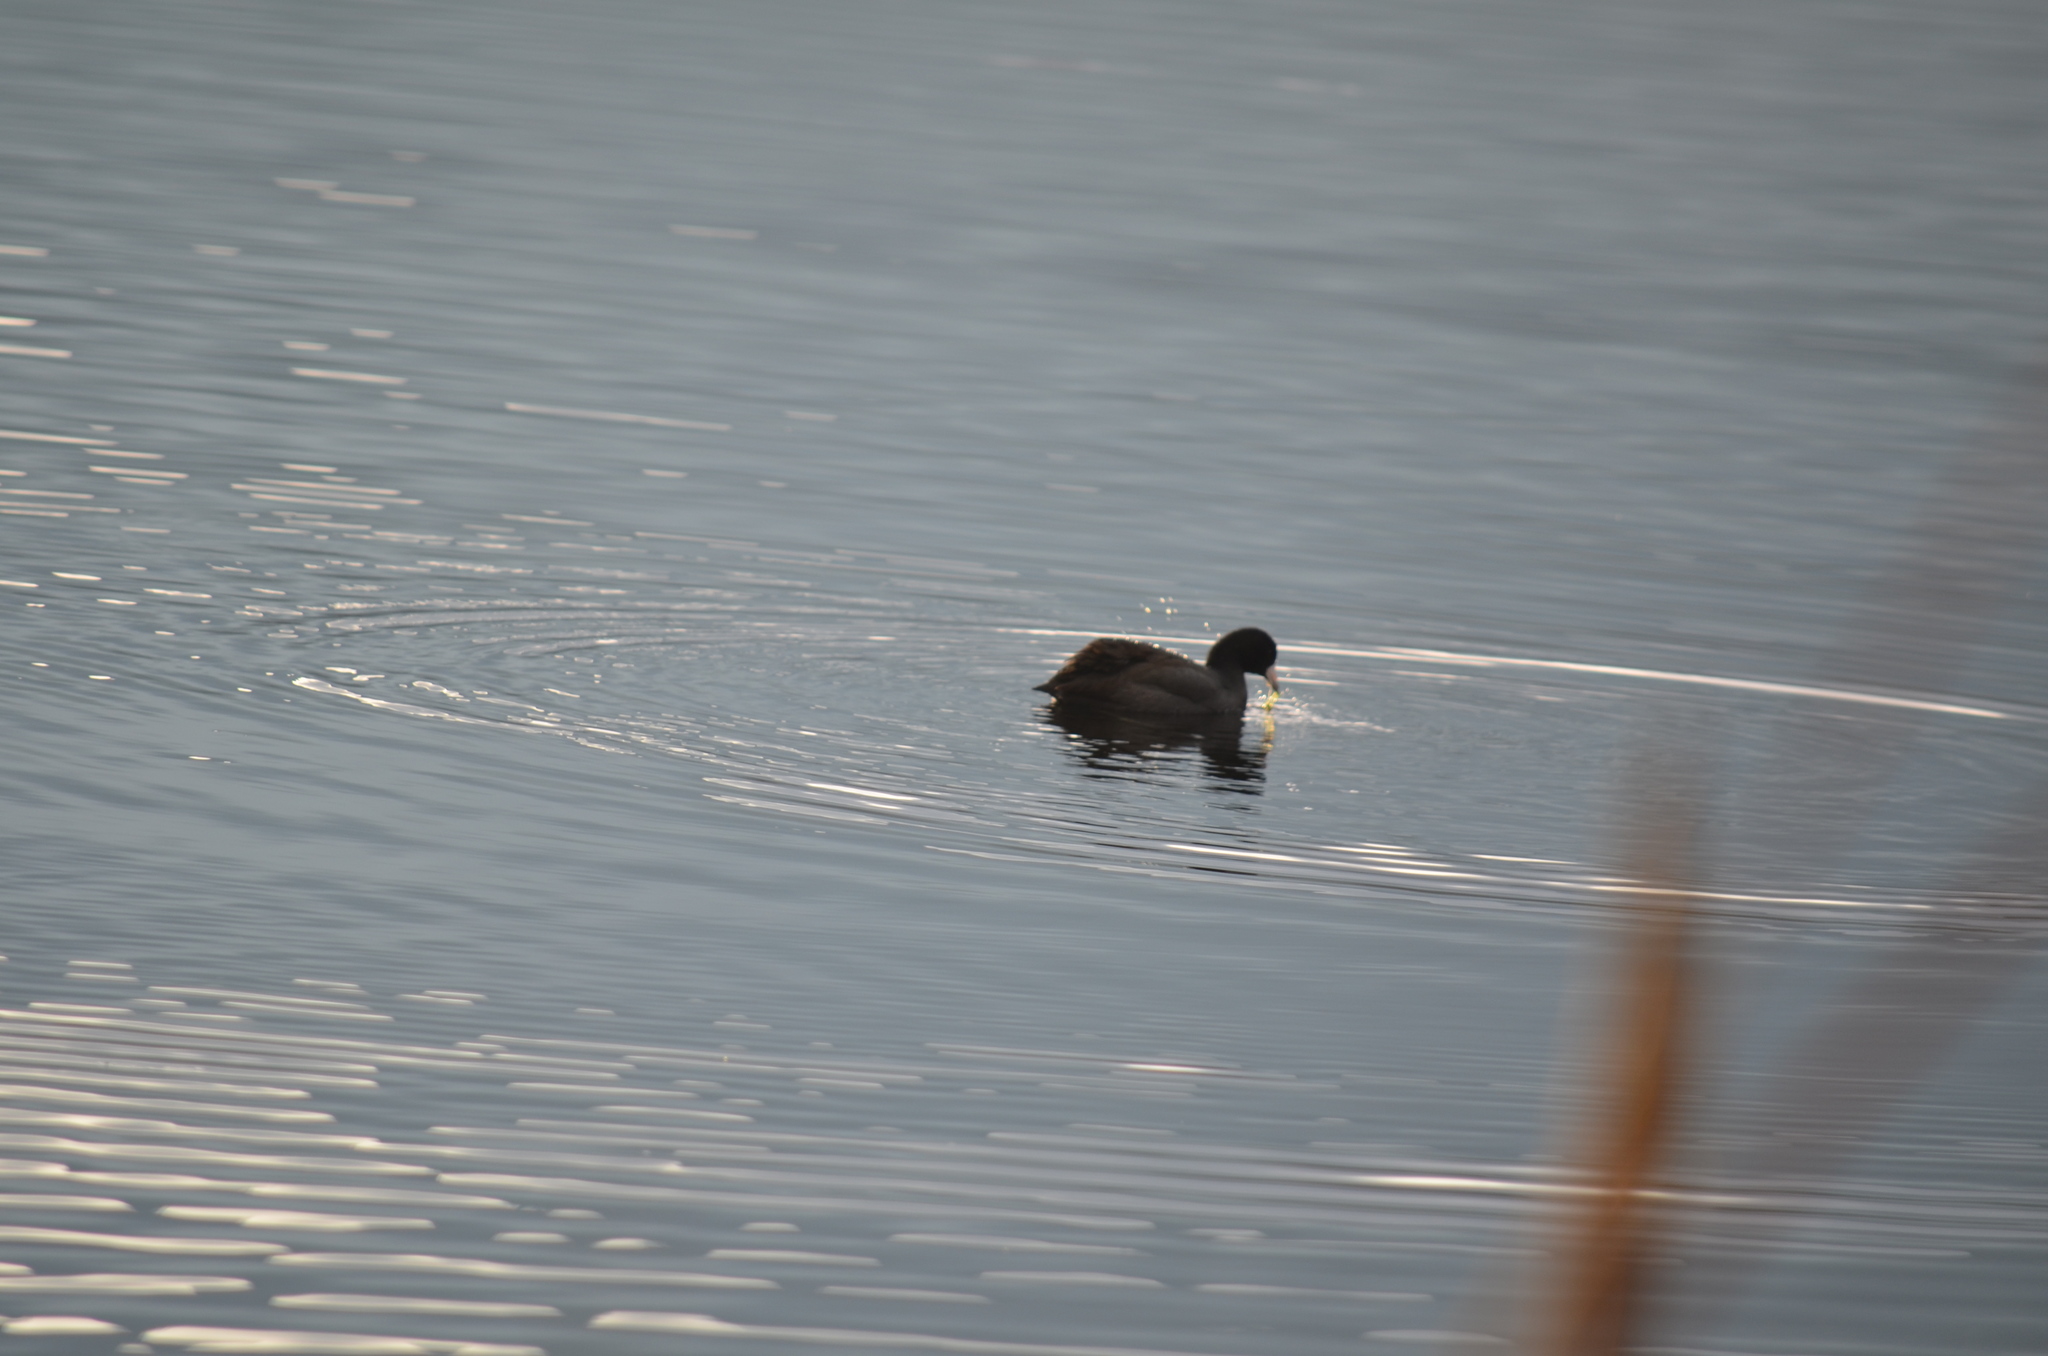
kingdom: Animalia
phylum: Chordata
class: Aves
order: Gruiformes
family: Rallidae
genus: Fulica
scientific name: Fulica americana
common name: American coot
